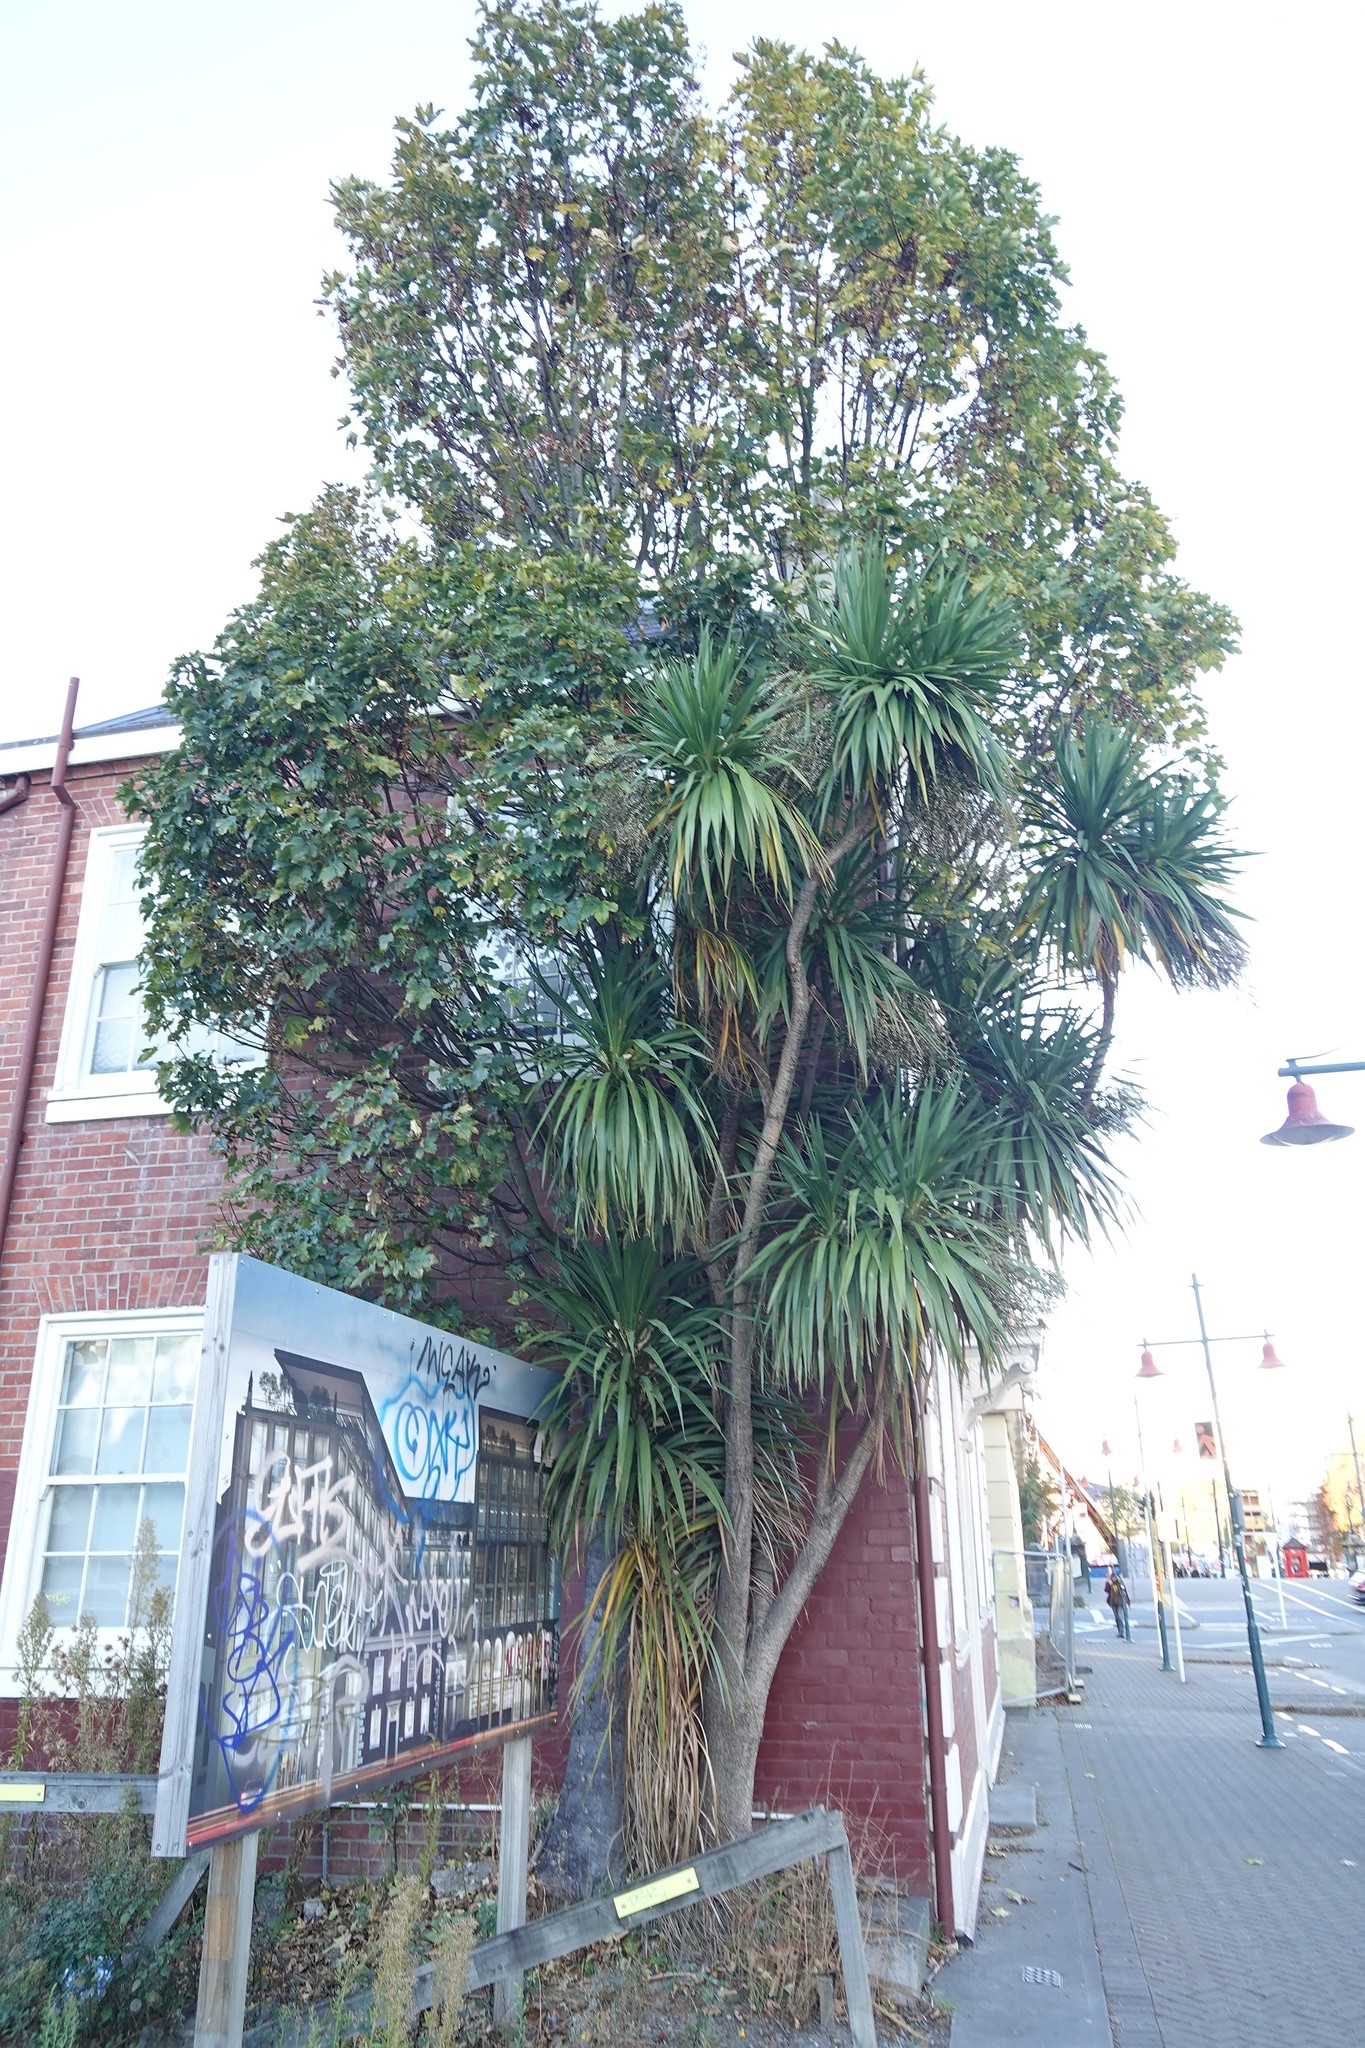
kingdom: Plantae
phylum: Tracheophyta
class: Liliopsida
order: Asparagales
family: Asparagaceae
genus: Cordyline
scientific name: Cordyline australis
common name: Cabbage-palm
